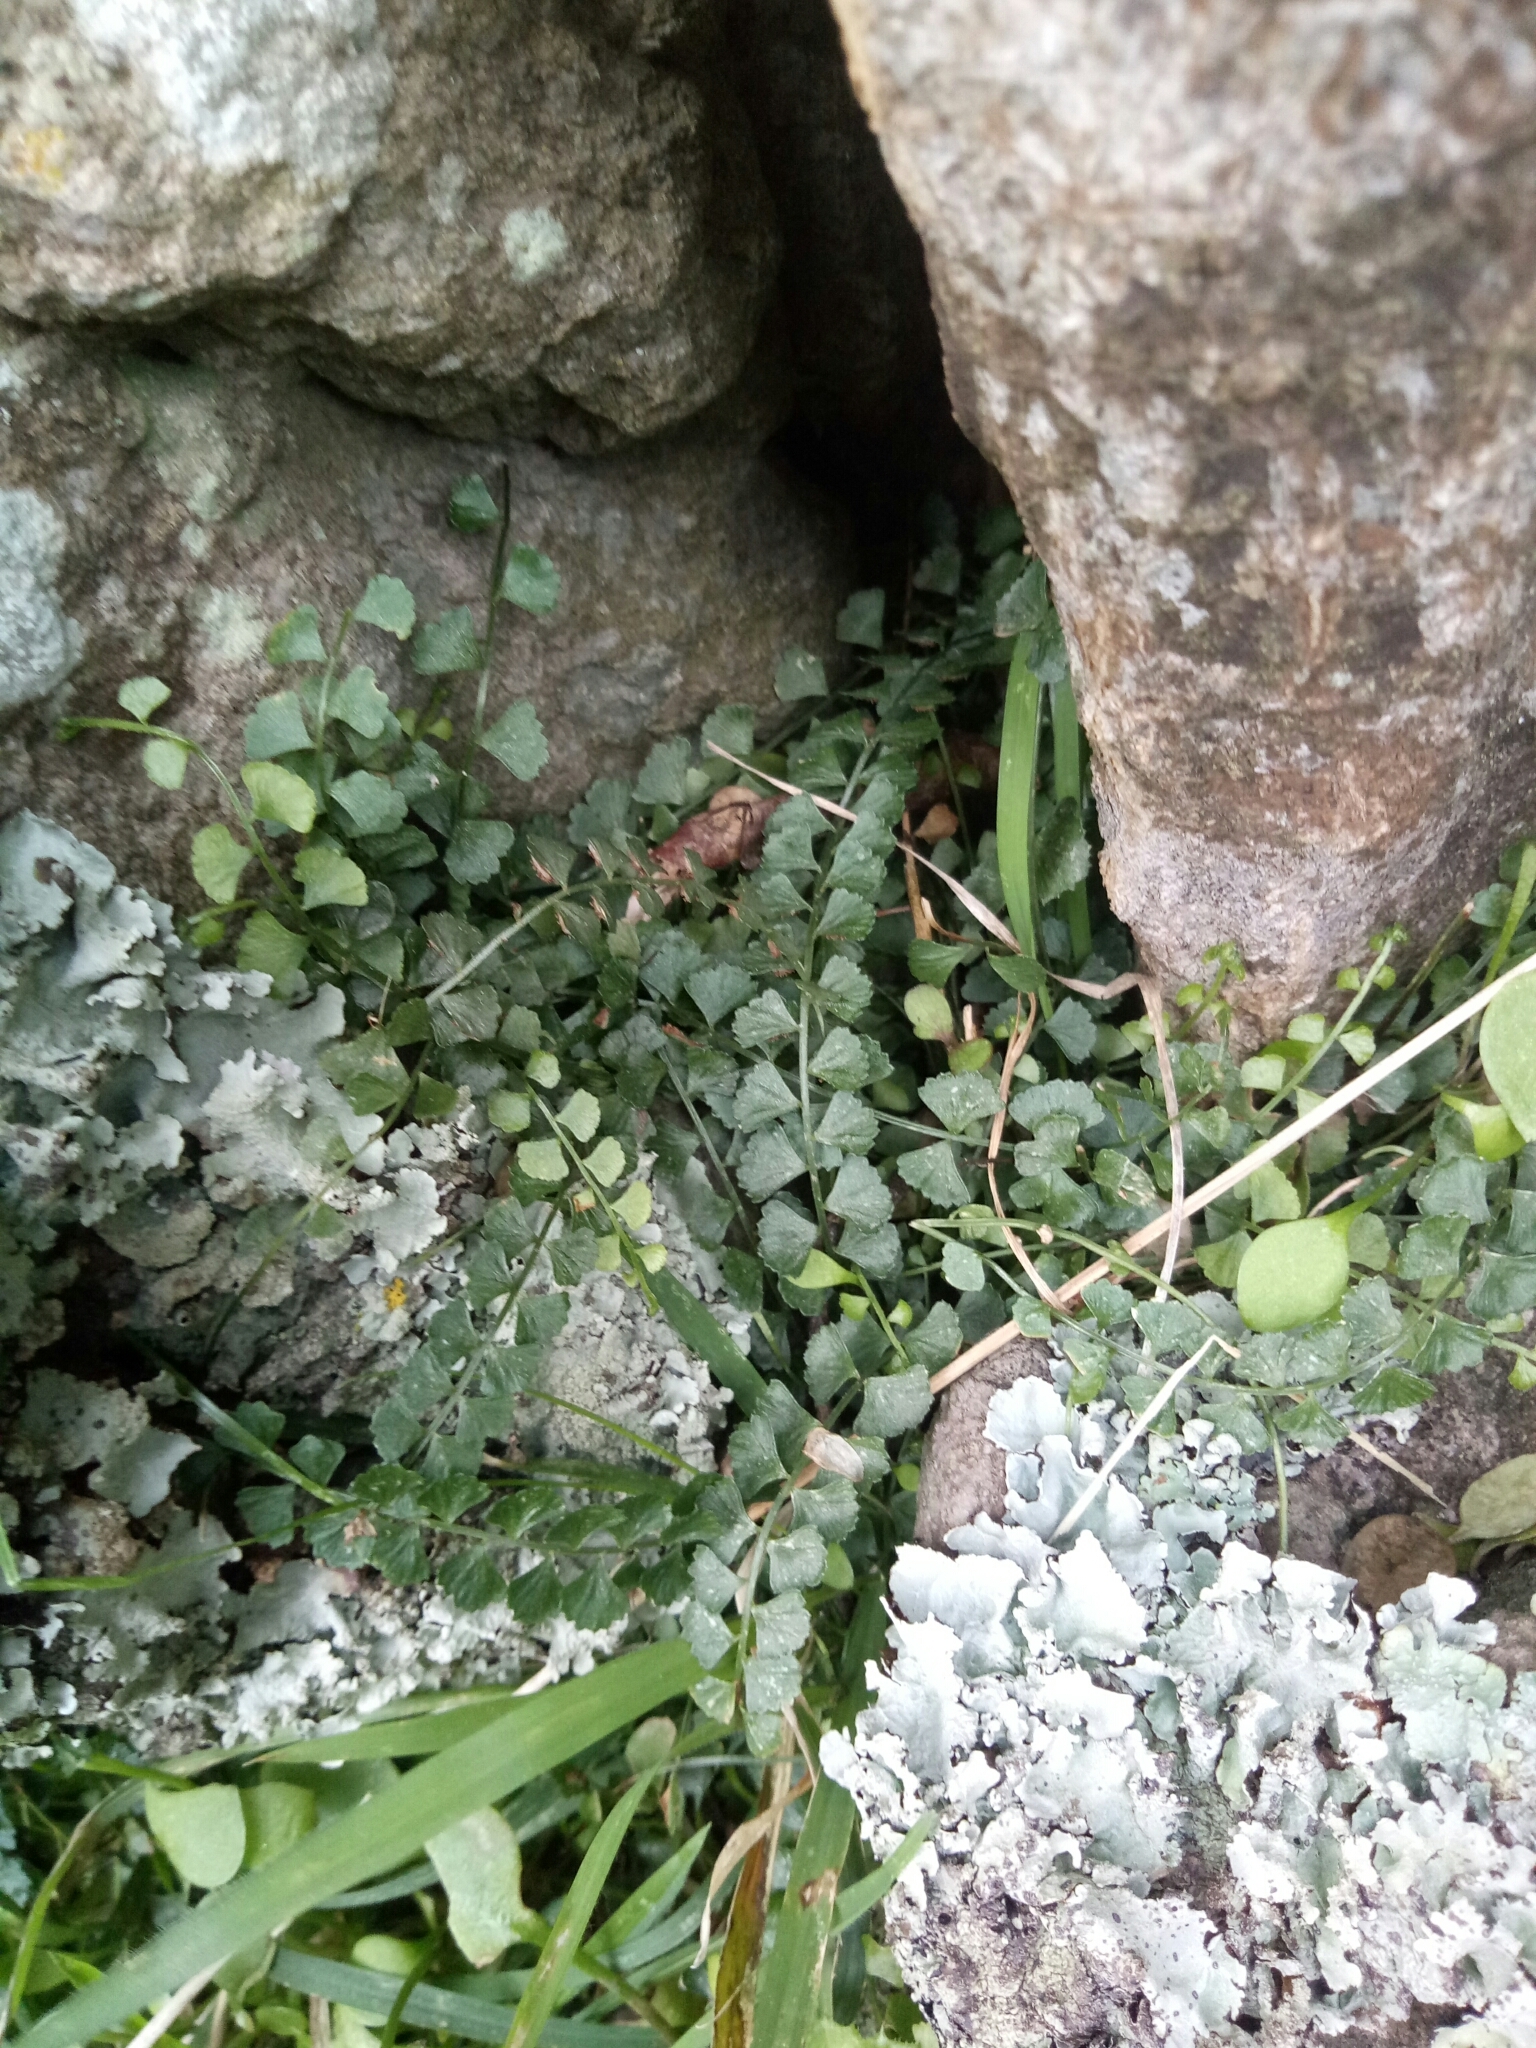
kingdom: Plantae
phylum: Tracheophyta
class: Polypodiopsida
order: Polypodiales
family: Aspleniaceae
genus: Asplenium
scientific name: Asplenium flabellifolium
